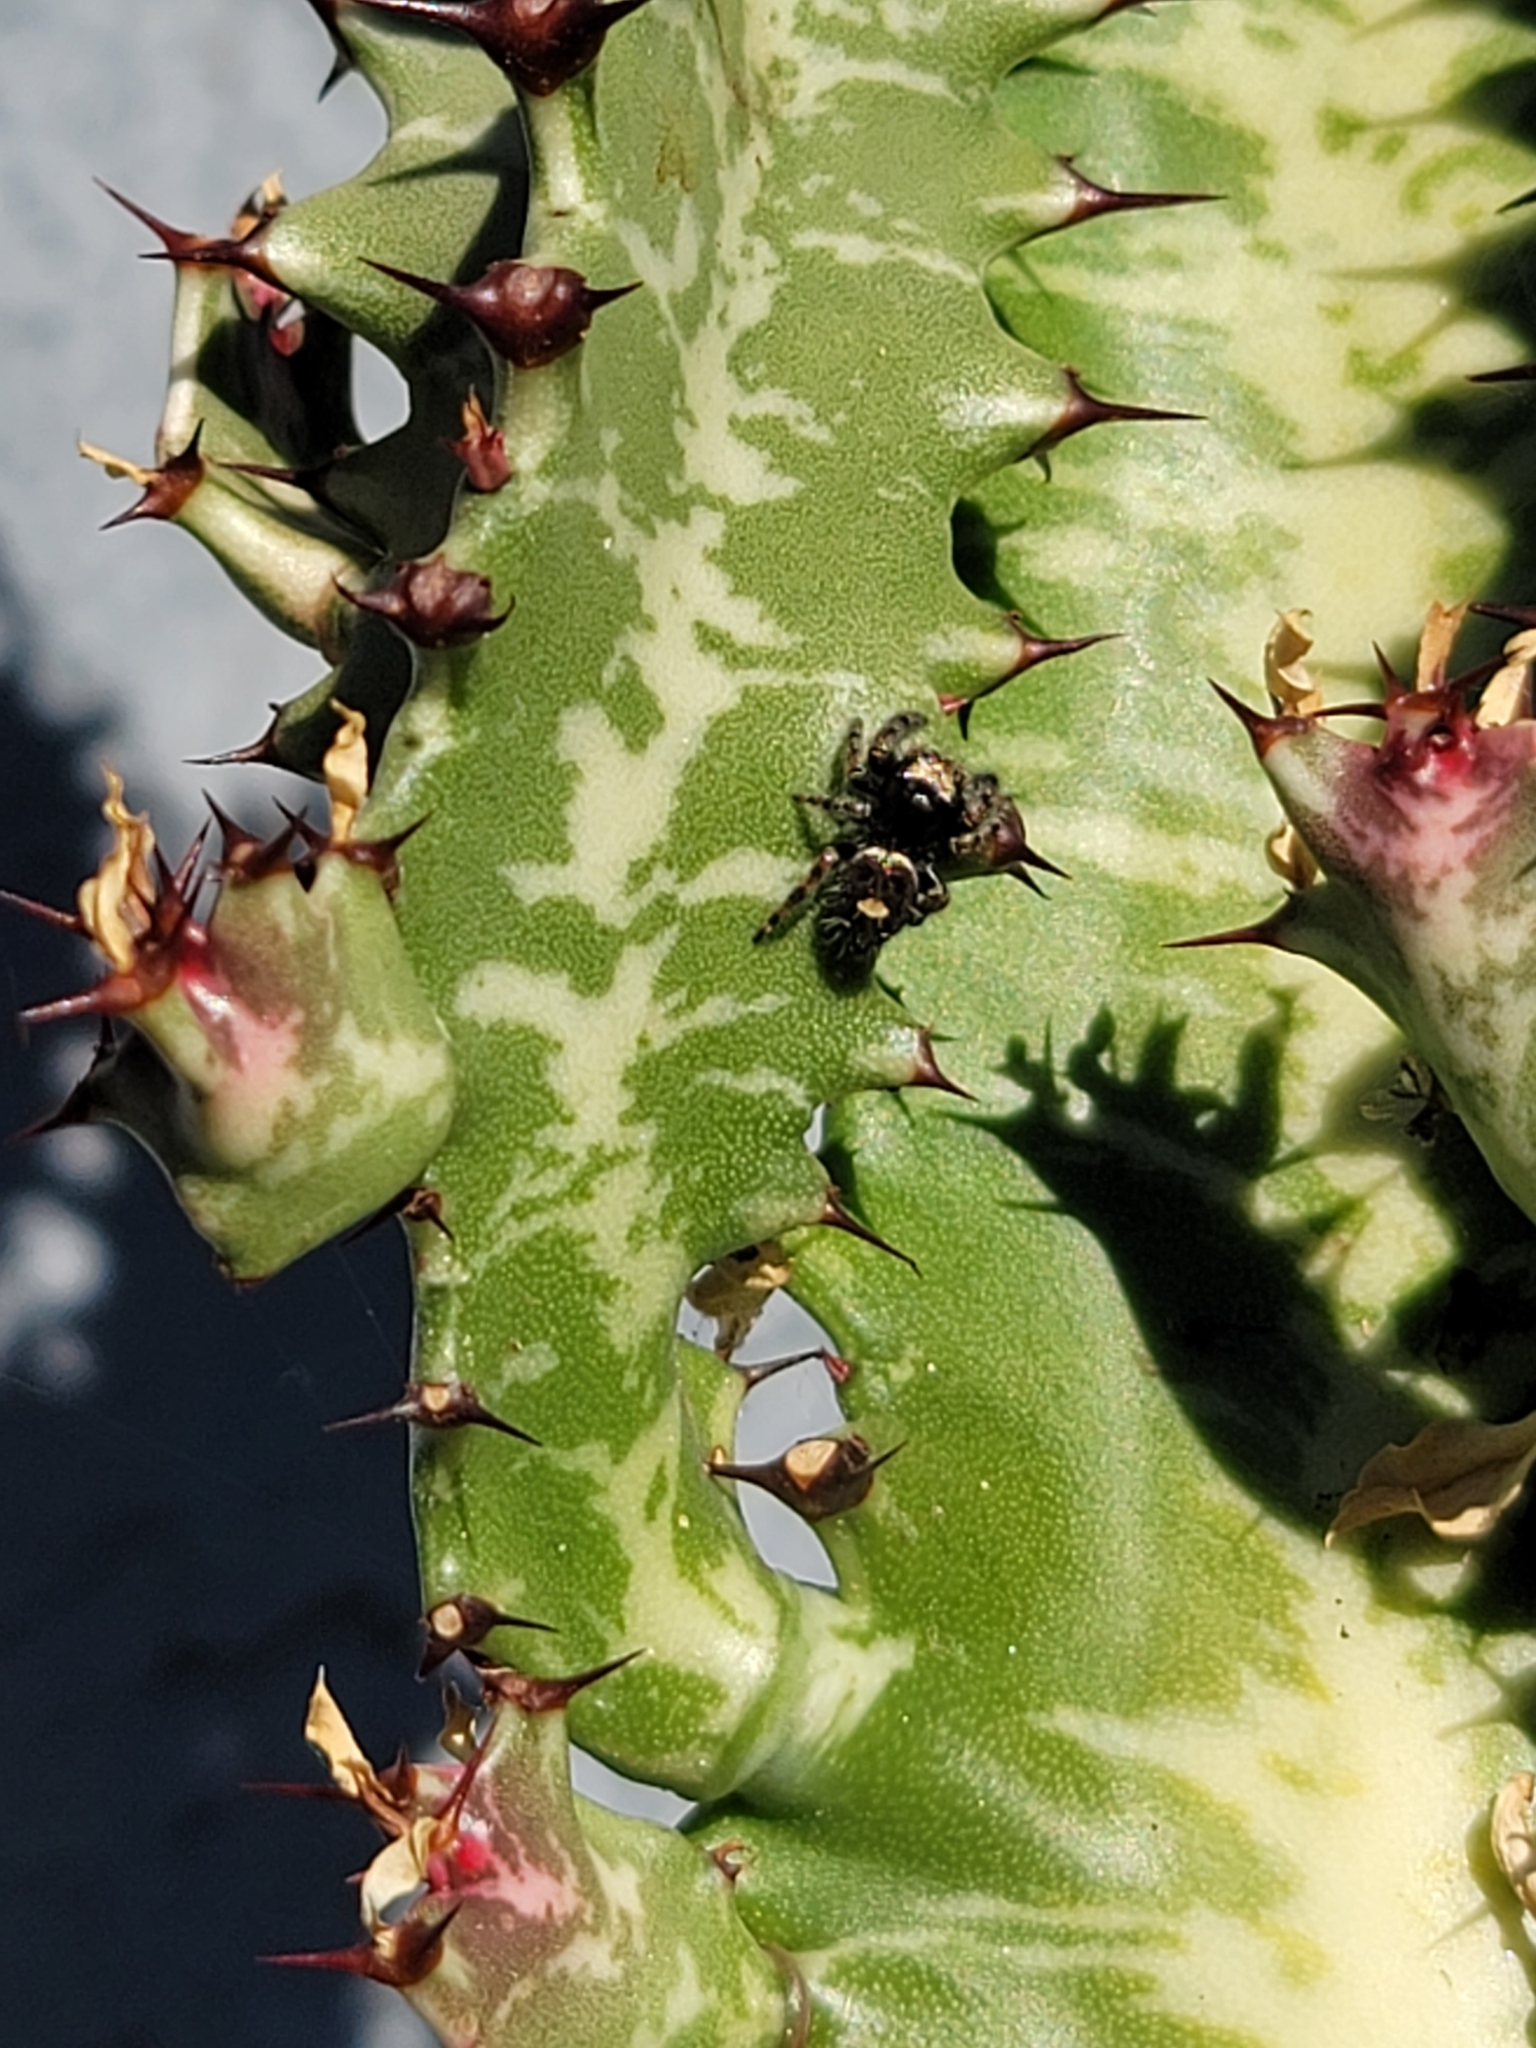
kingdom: Animalia
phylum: Arthropoda
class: Arachnida
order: Araneae
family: Salticidae
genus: Phidippus
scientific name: Phidippus audax
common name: Bold jumper
